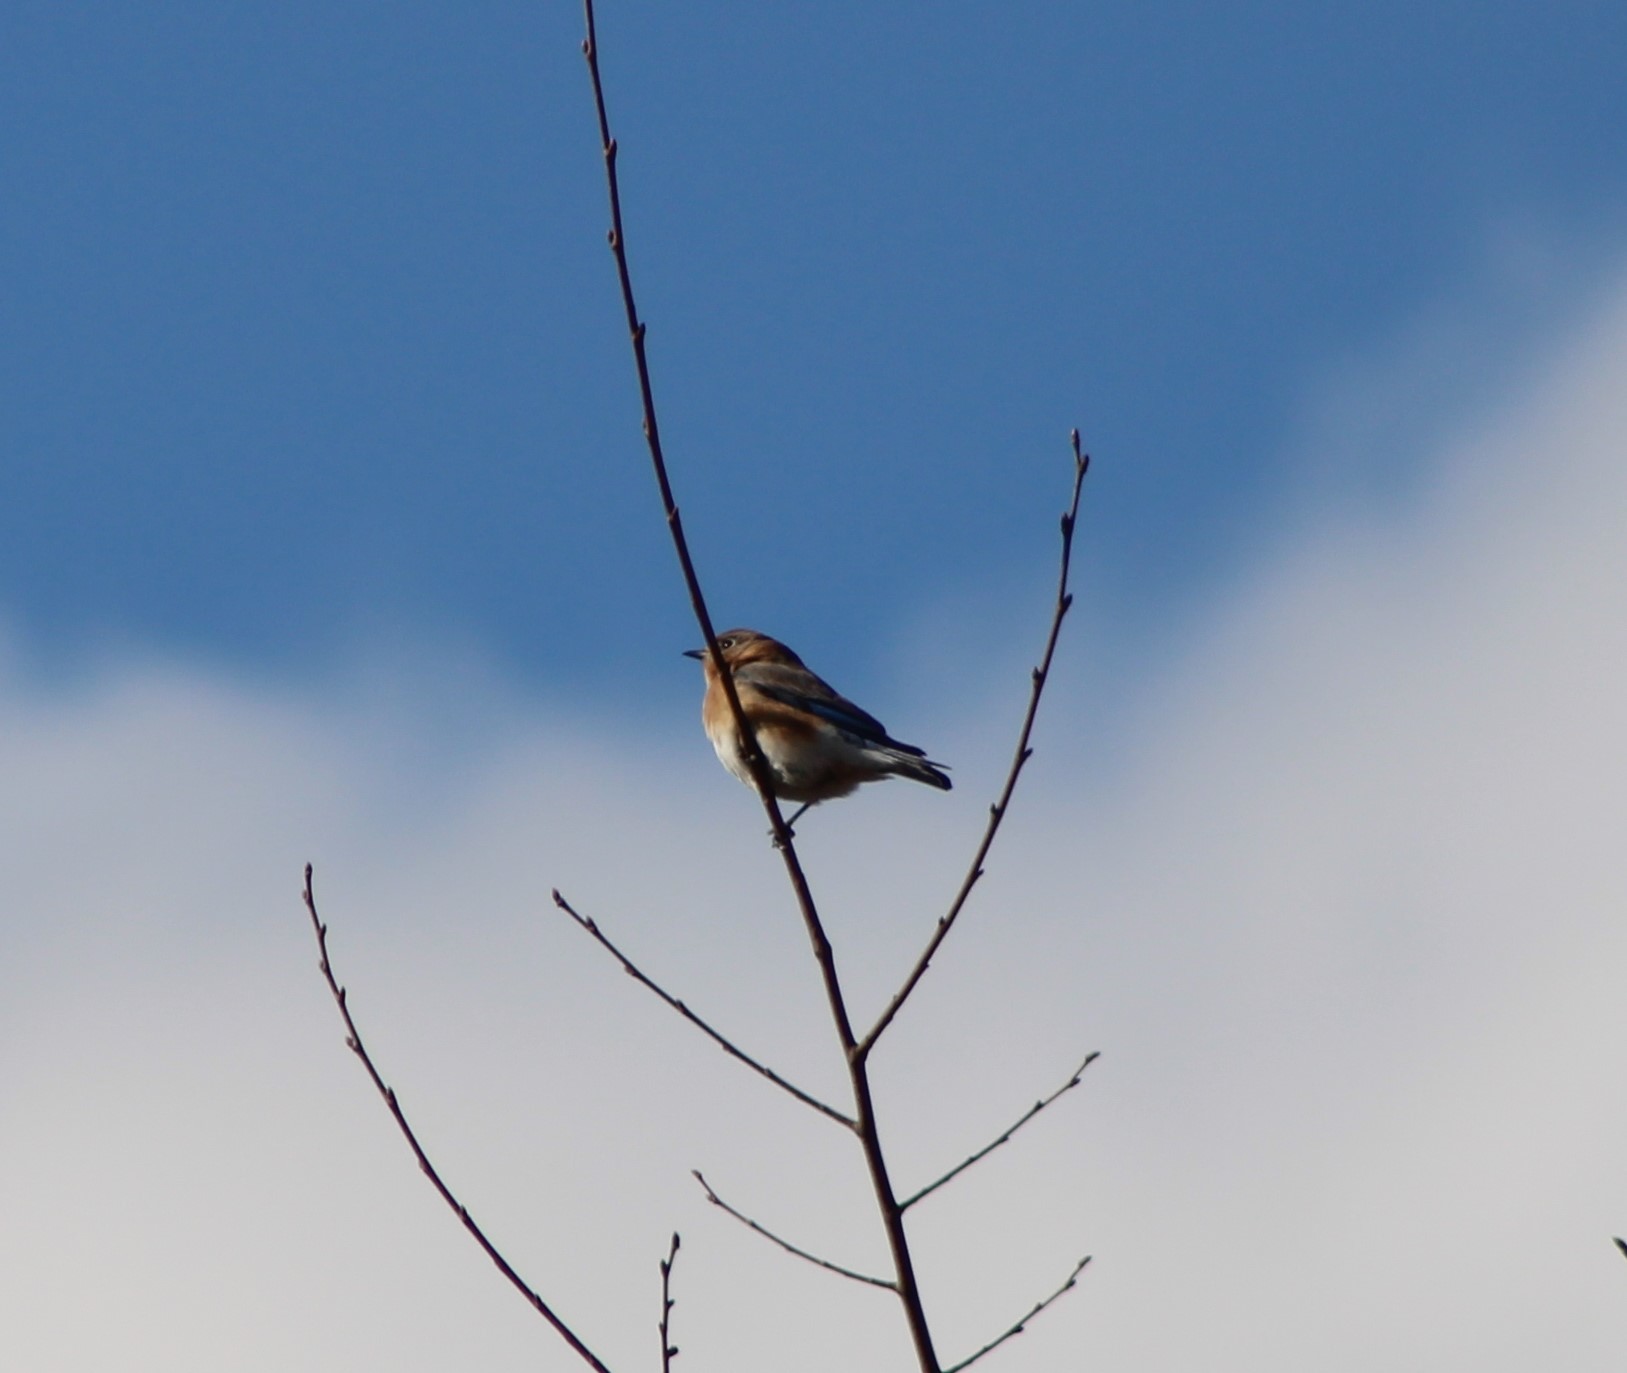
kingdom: Animalia
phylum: Chordata
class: Aves
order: Passeriformes
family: Turdidae
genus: Sialia
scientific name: Sialia sialis
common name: Eastern bluebird
